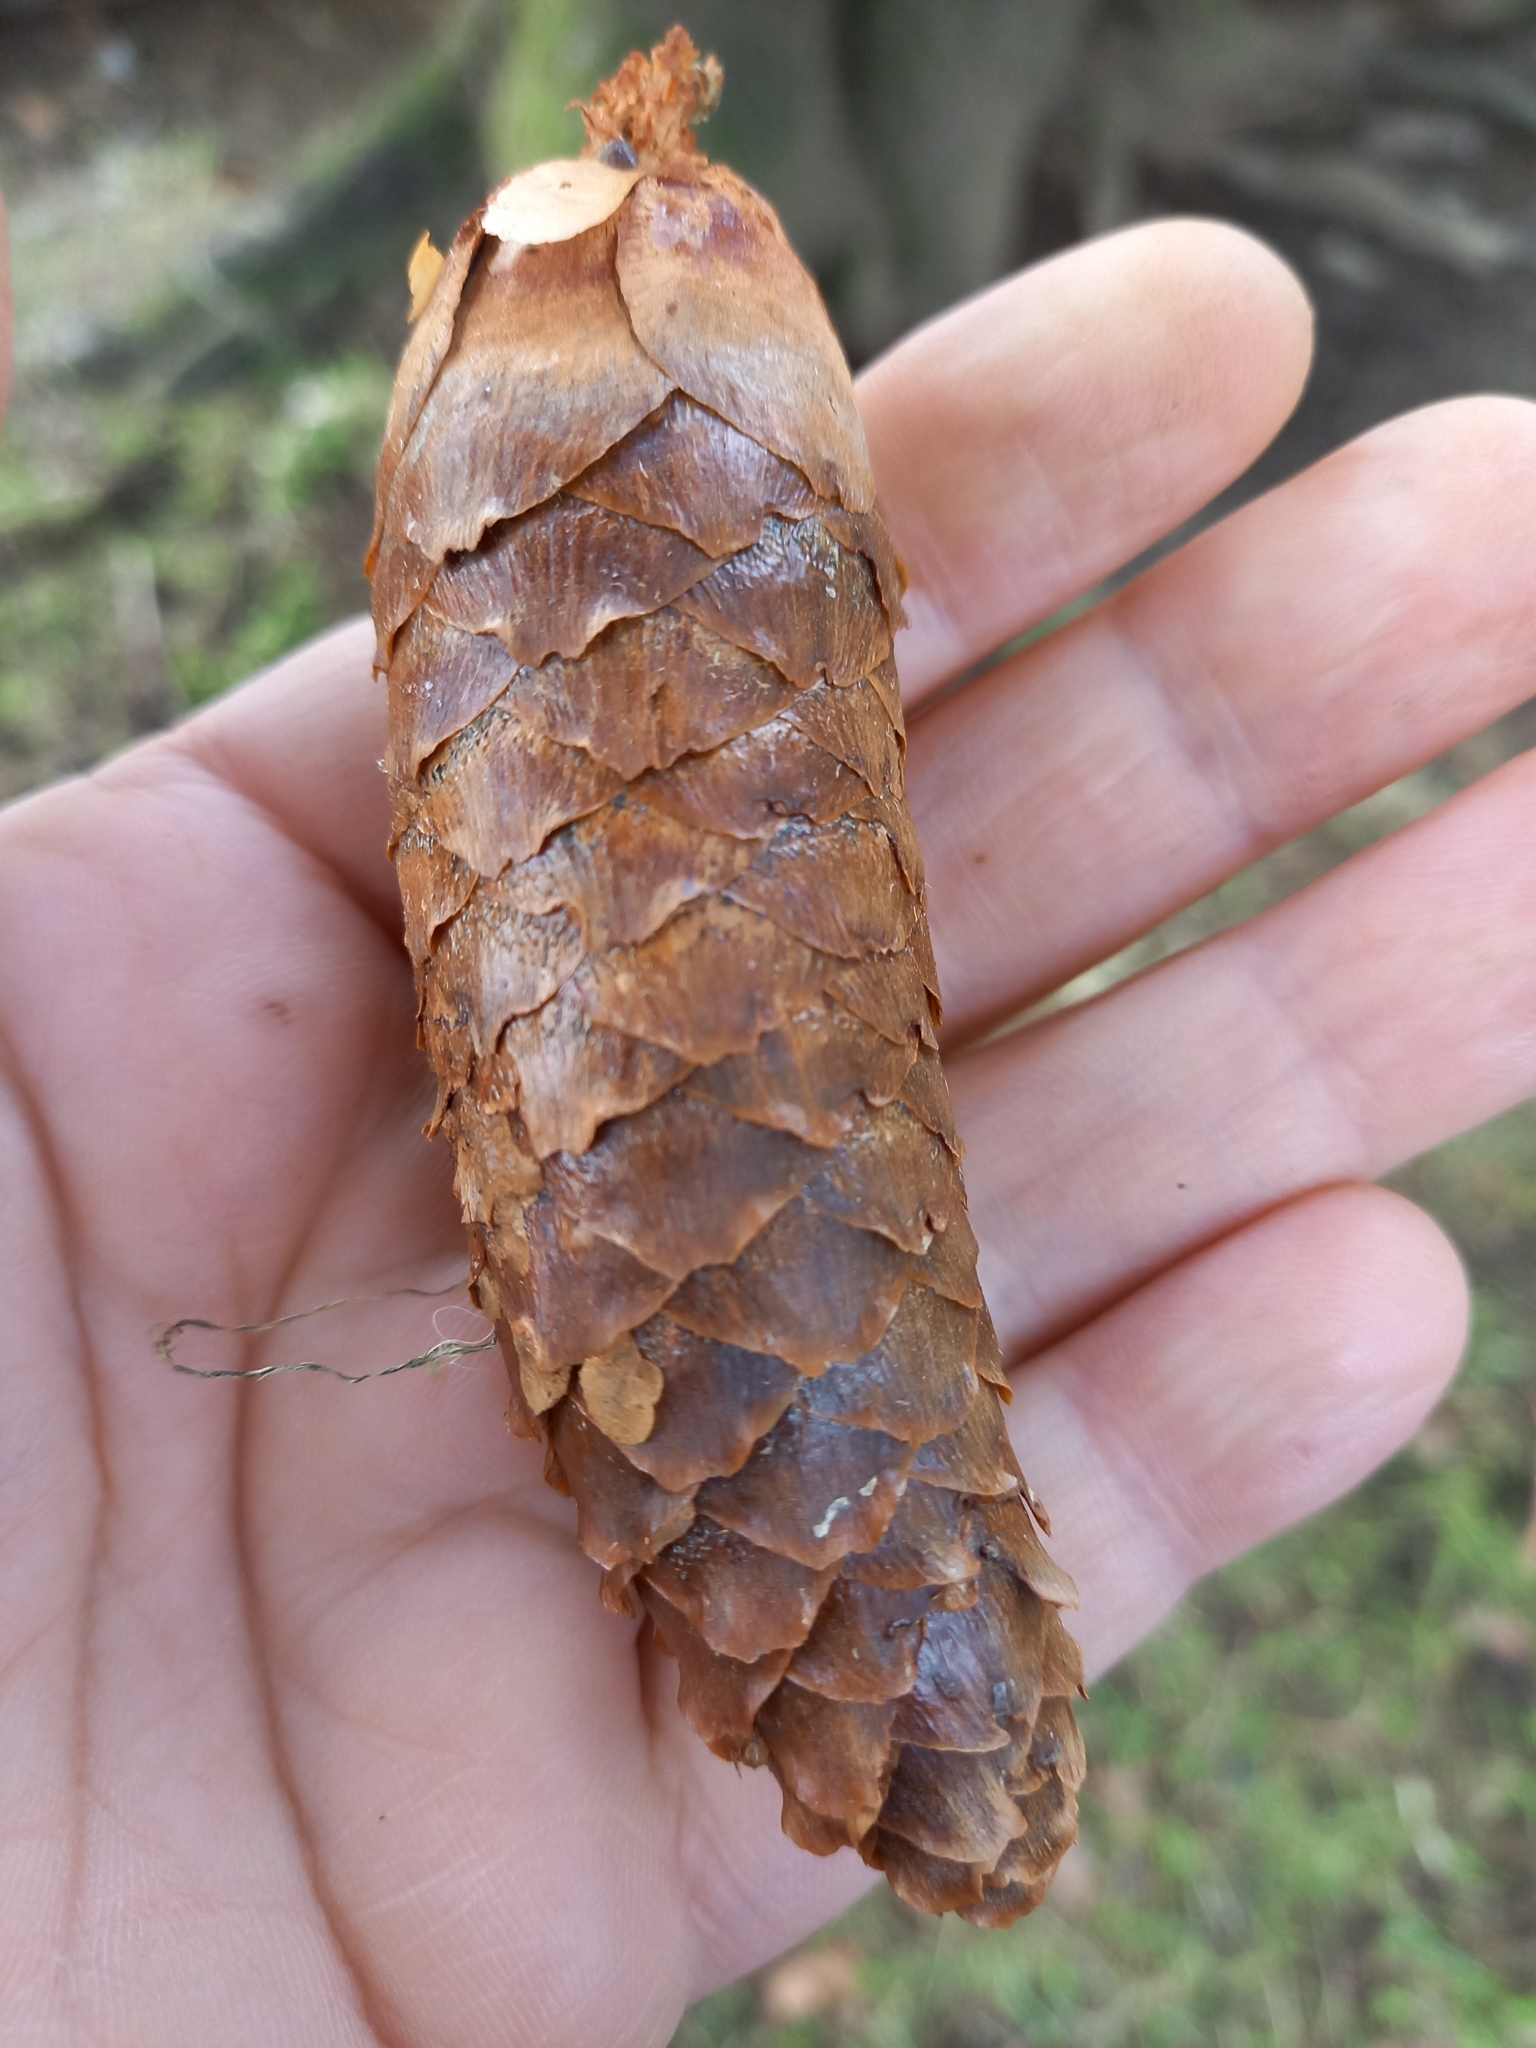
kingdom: Plantae
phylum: Tracheophyta
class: Pinopsida
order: Pinales
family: Pinaceae
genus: Picea
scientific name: Picea abies
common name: Norway spruce
